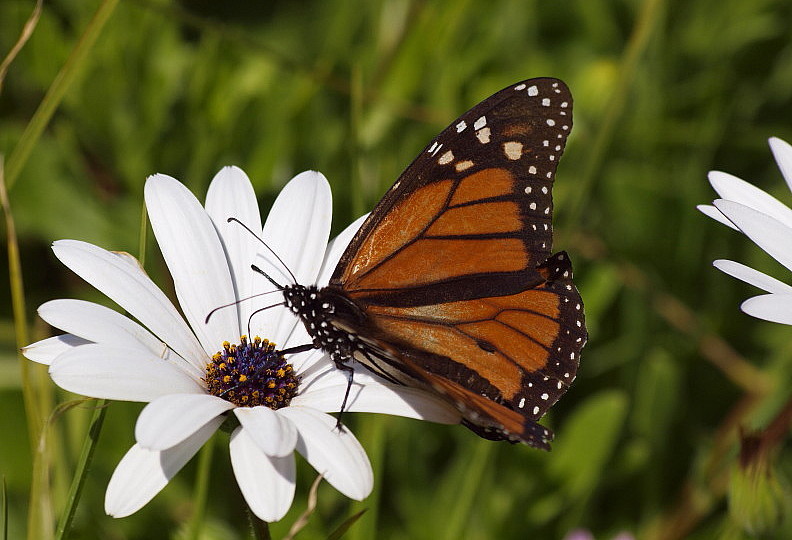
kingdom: Animalia
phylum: Arthropoda
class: Insecta
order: Lepidoptera
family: Nymphalidae
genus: Danaus
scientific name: Danaus plexippus
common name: Monarch
